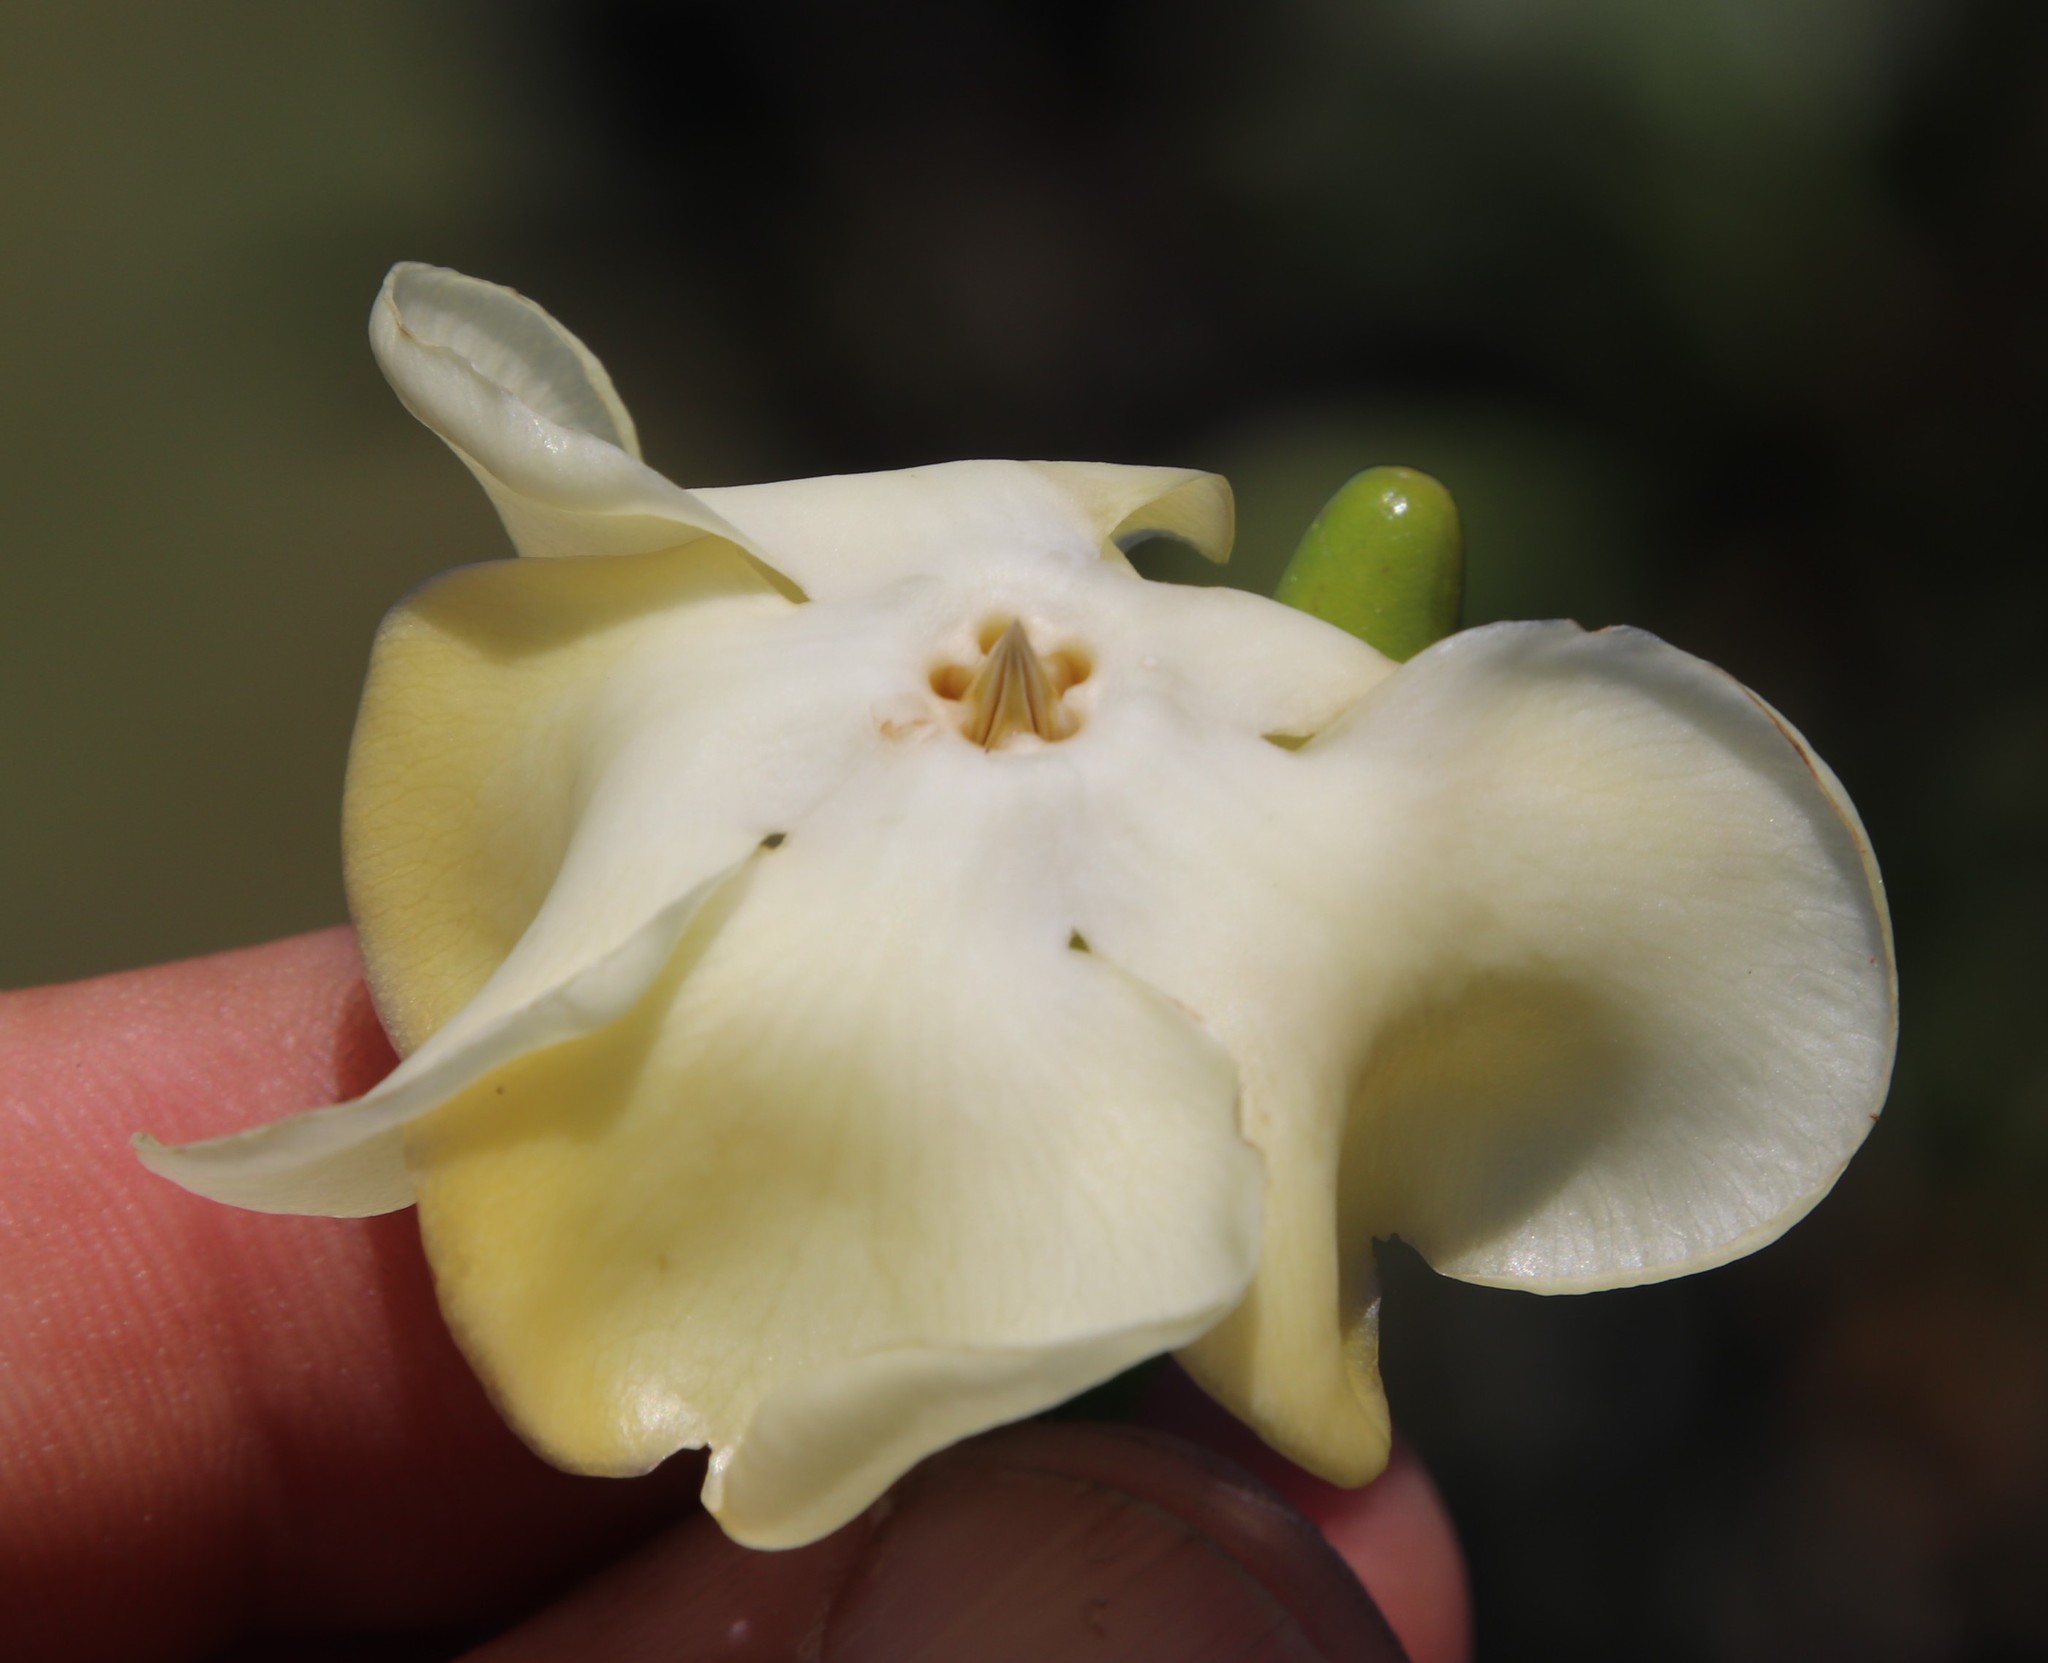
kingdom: Plantae
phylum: Tracheophyta
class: Magnoliopsida
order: Gentianales
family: Apocynaceae
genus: Voacanga
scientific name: Voacanga thouarsii
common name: Wild frangipani
